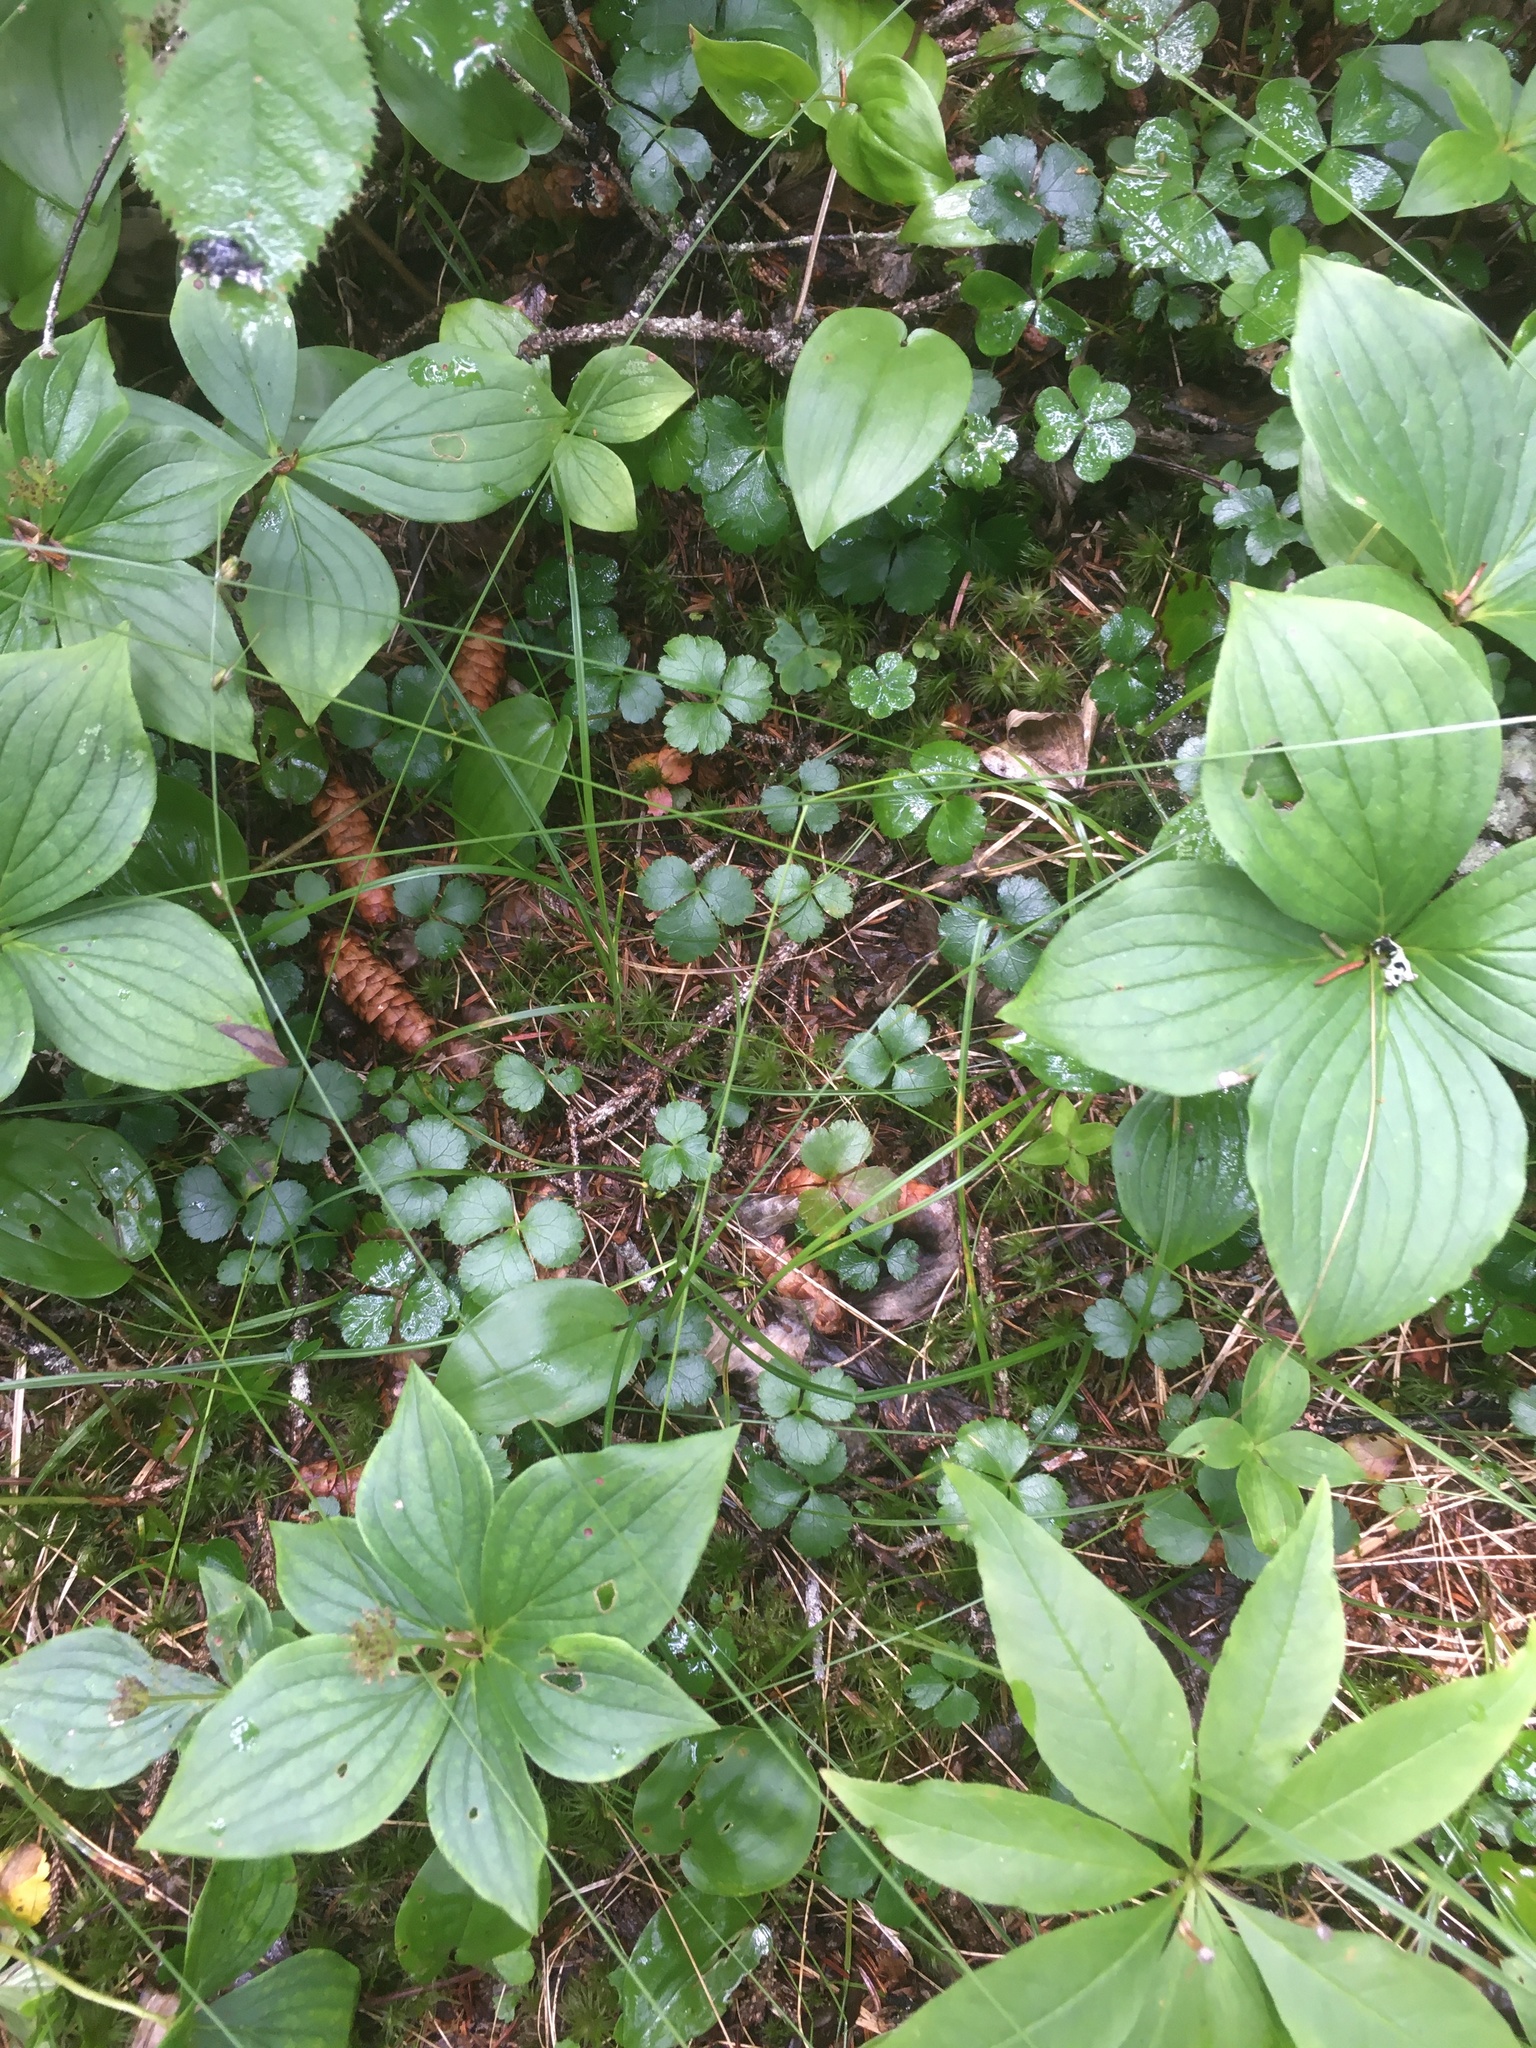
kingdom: Plantae
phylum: Tracheophyta
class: Magnoliopsida
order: Ranunculales
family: Ranunculaceae
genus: Coptis
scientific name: Coptis trifolia
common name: Canker-root
